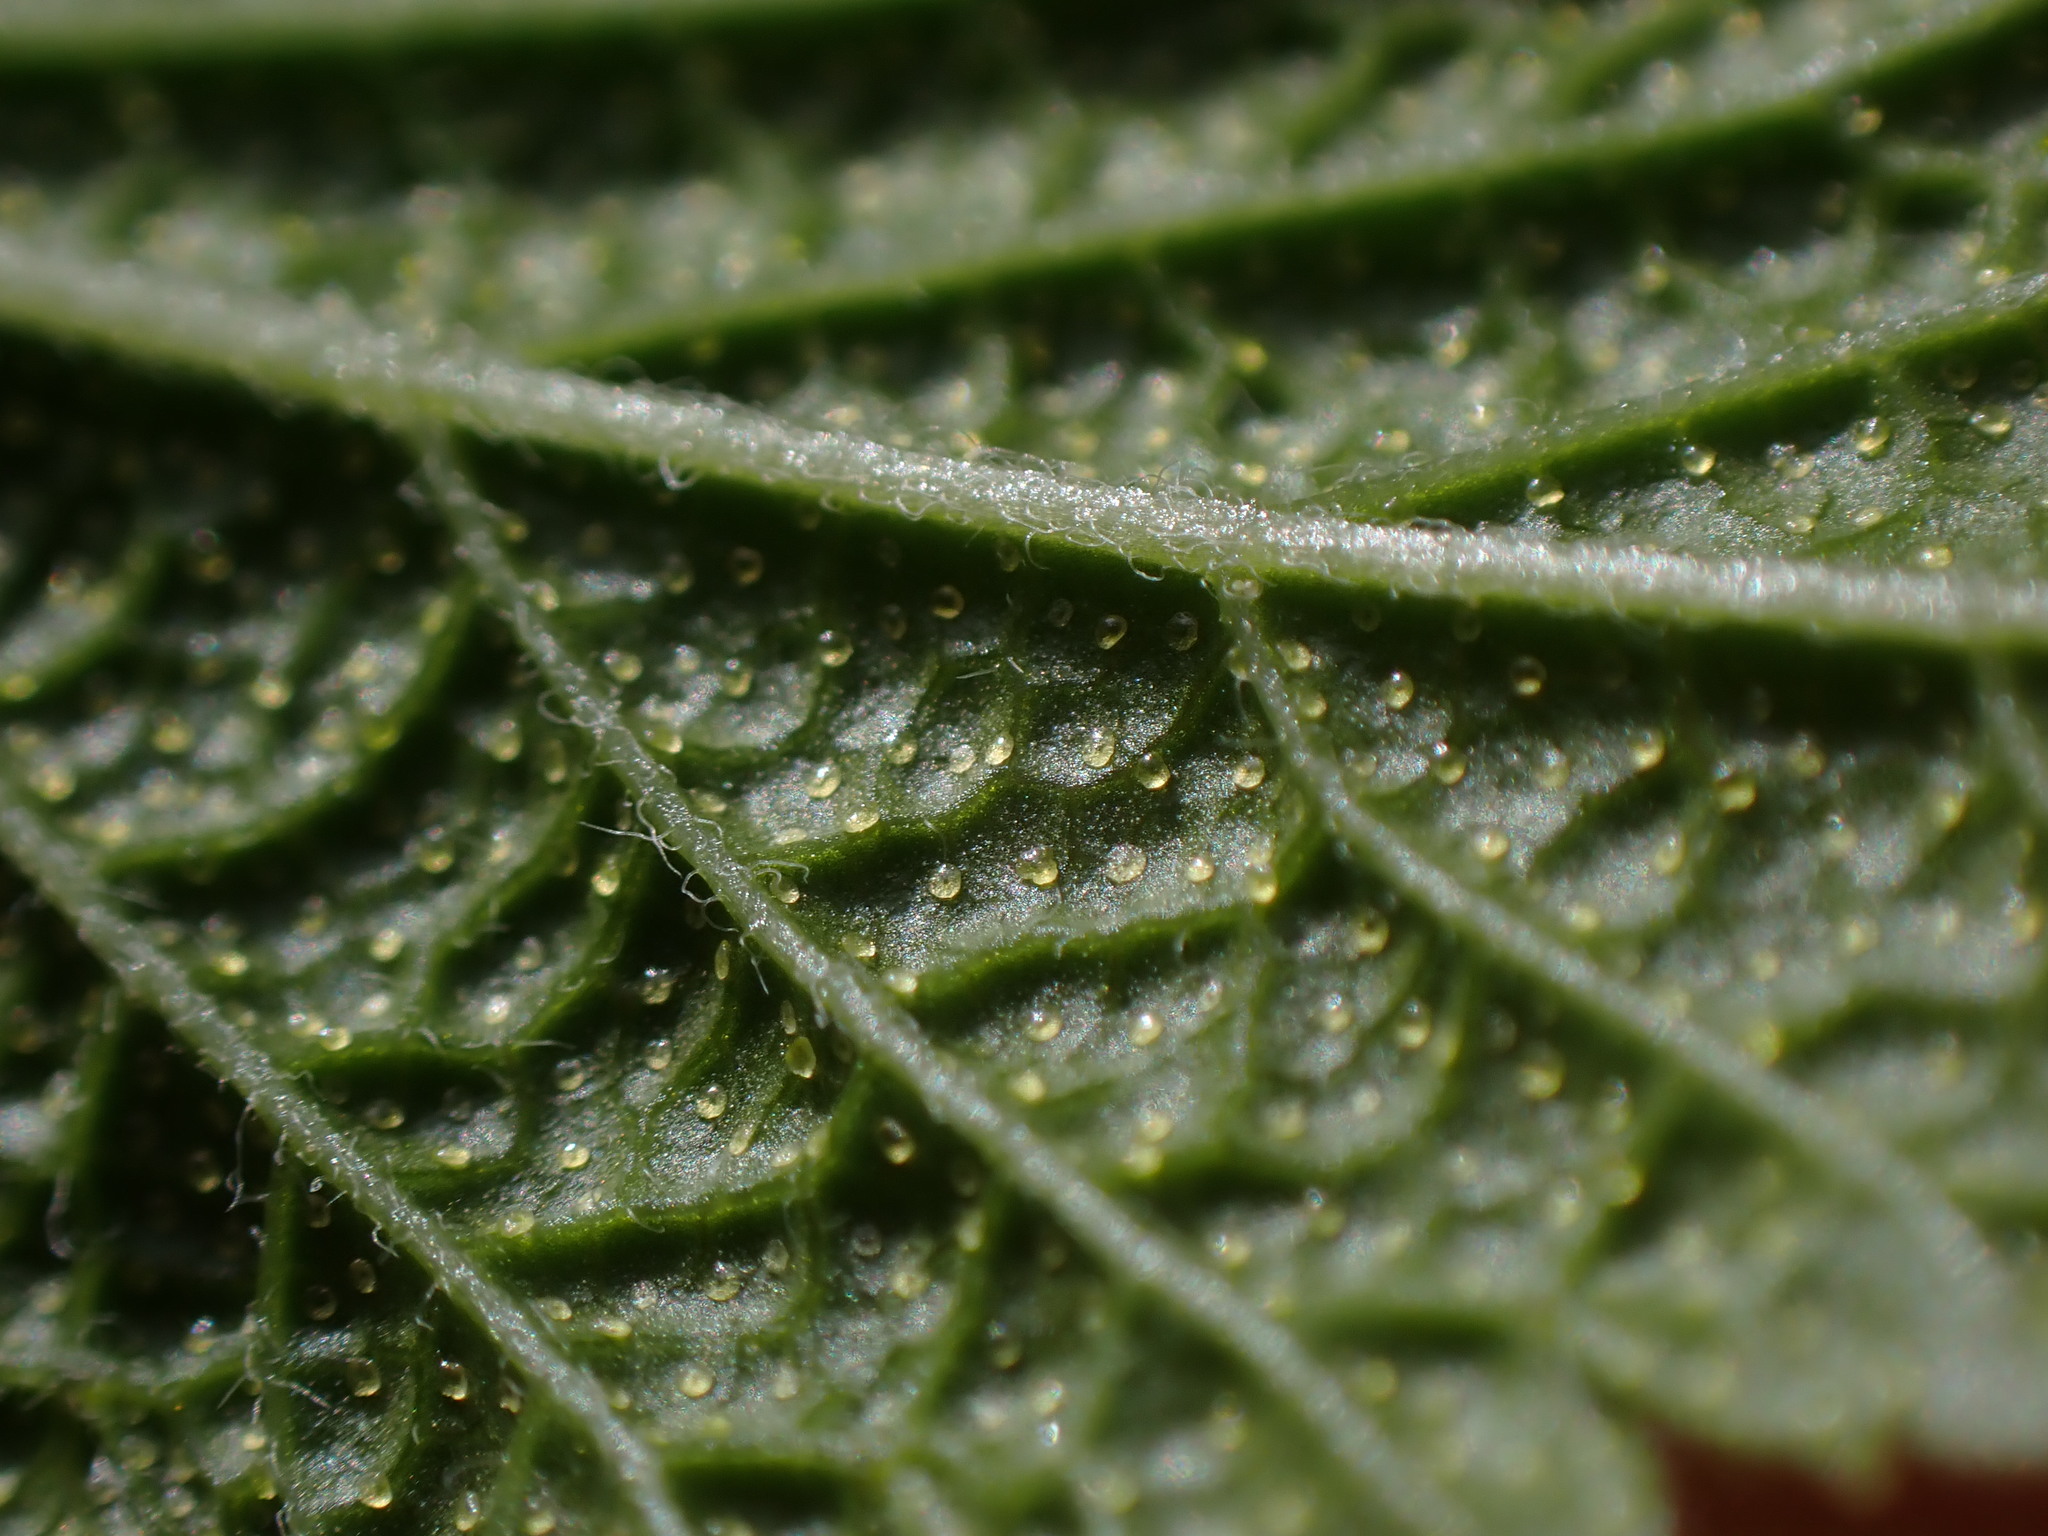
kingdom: Plantae
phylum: Tracheophyta
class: Magnoliopsida
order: Saxifragales
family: Grossulariaceae
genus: Ribes
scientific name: Ribes bracteosum
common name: California black currant
